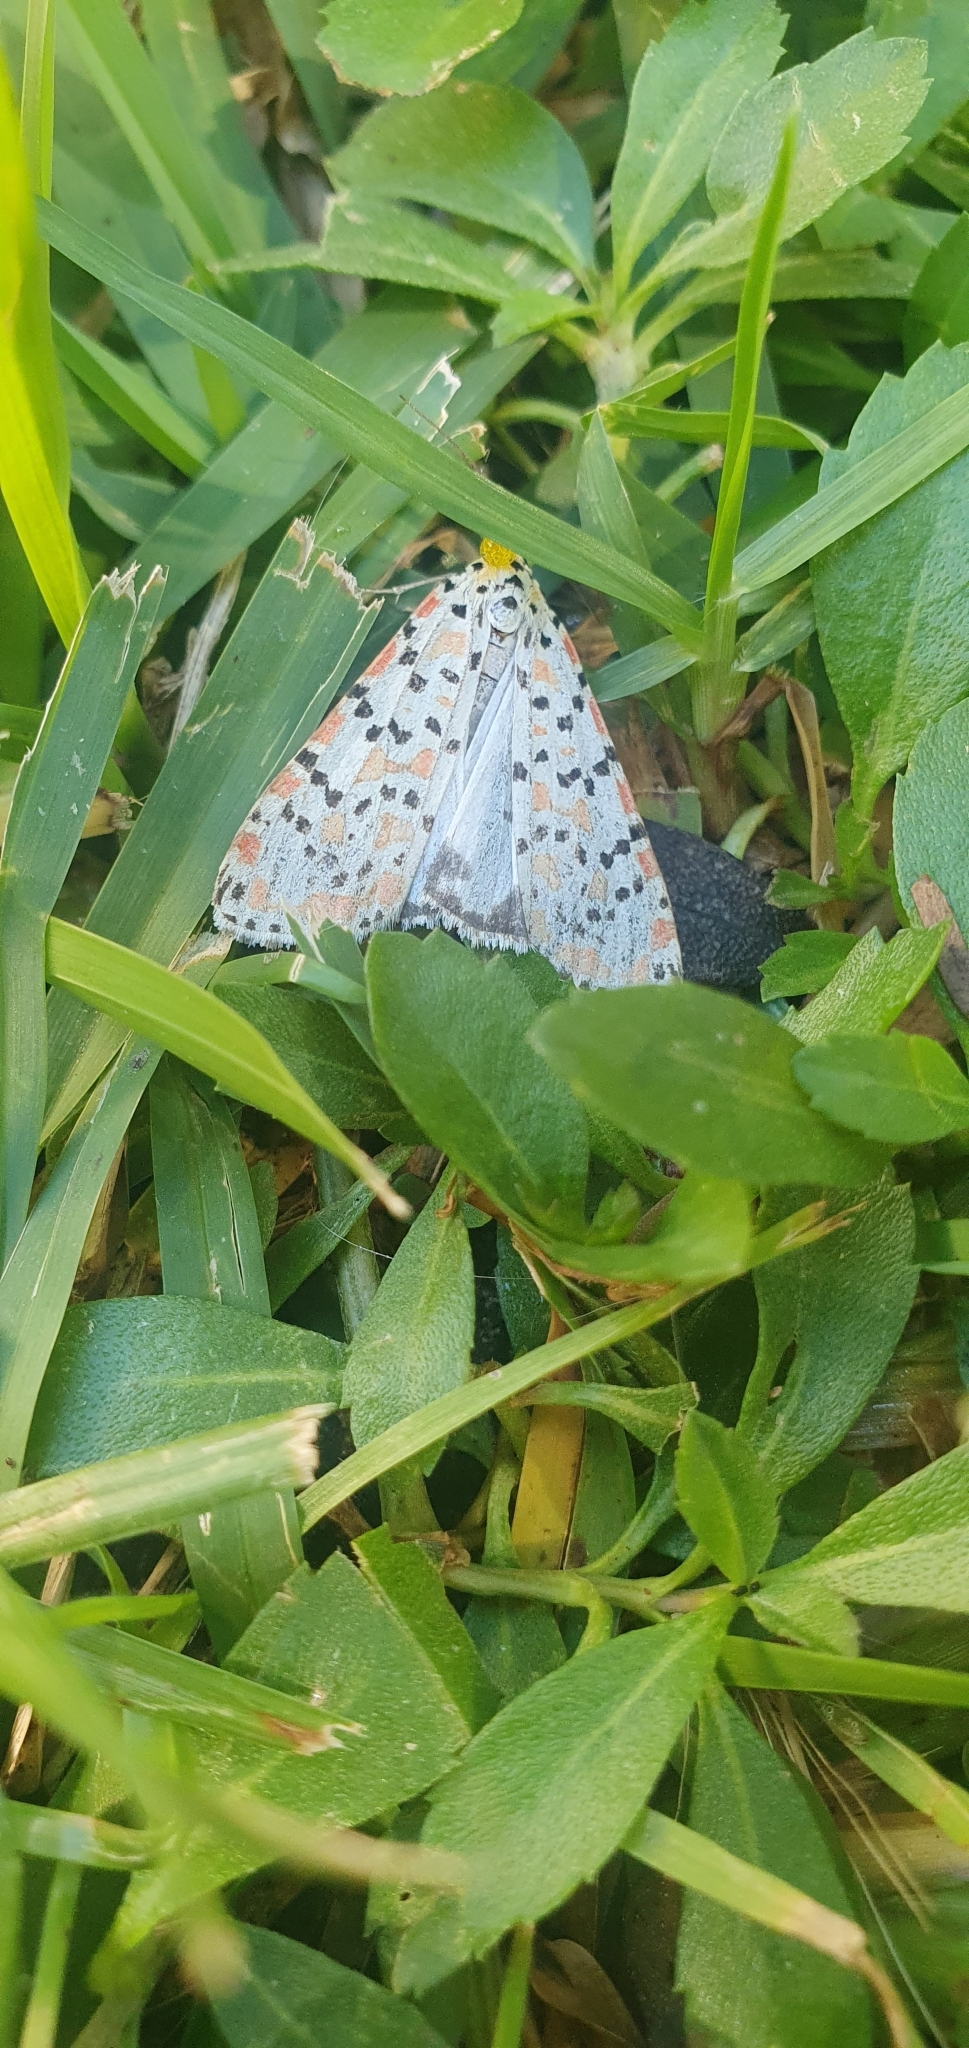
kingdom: Animalia
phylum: Arthropoda
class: Insecta
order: Lepidoptera
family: Erebidae
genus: Utetheisa
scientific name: Utetheisa pulchella
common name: Crimson speckled
